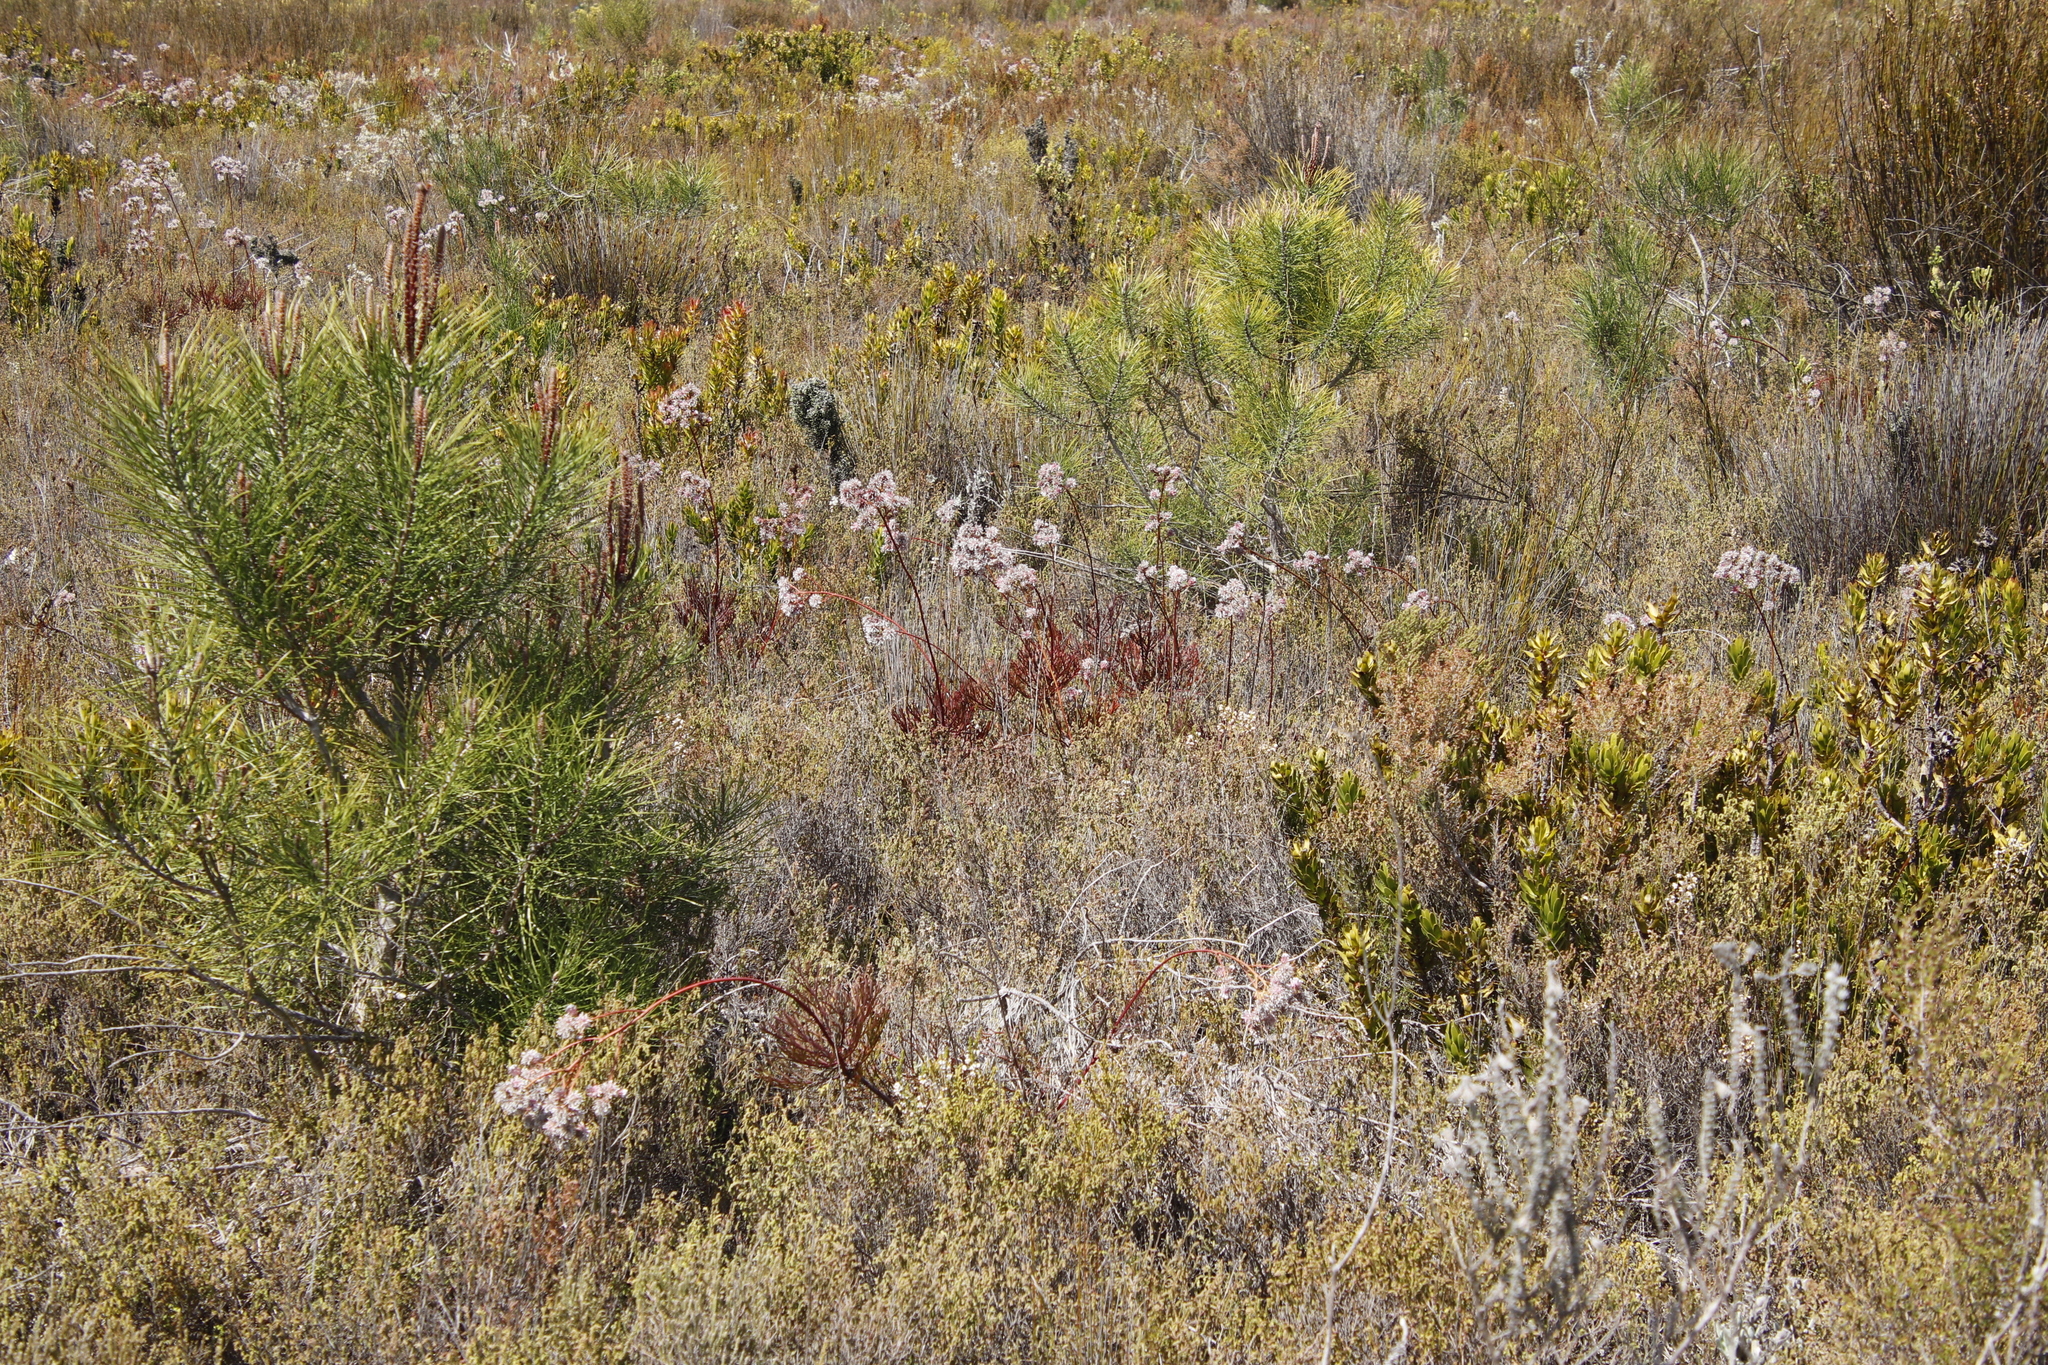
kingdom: Plantae
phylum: Tracheophyta
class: Magnoliopsida
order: Proteales
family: Proteaceae
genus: Serruria
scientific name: Serruria elongata
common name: Long-stalk spiderhead
